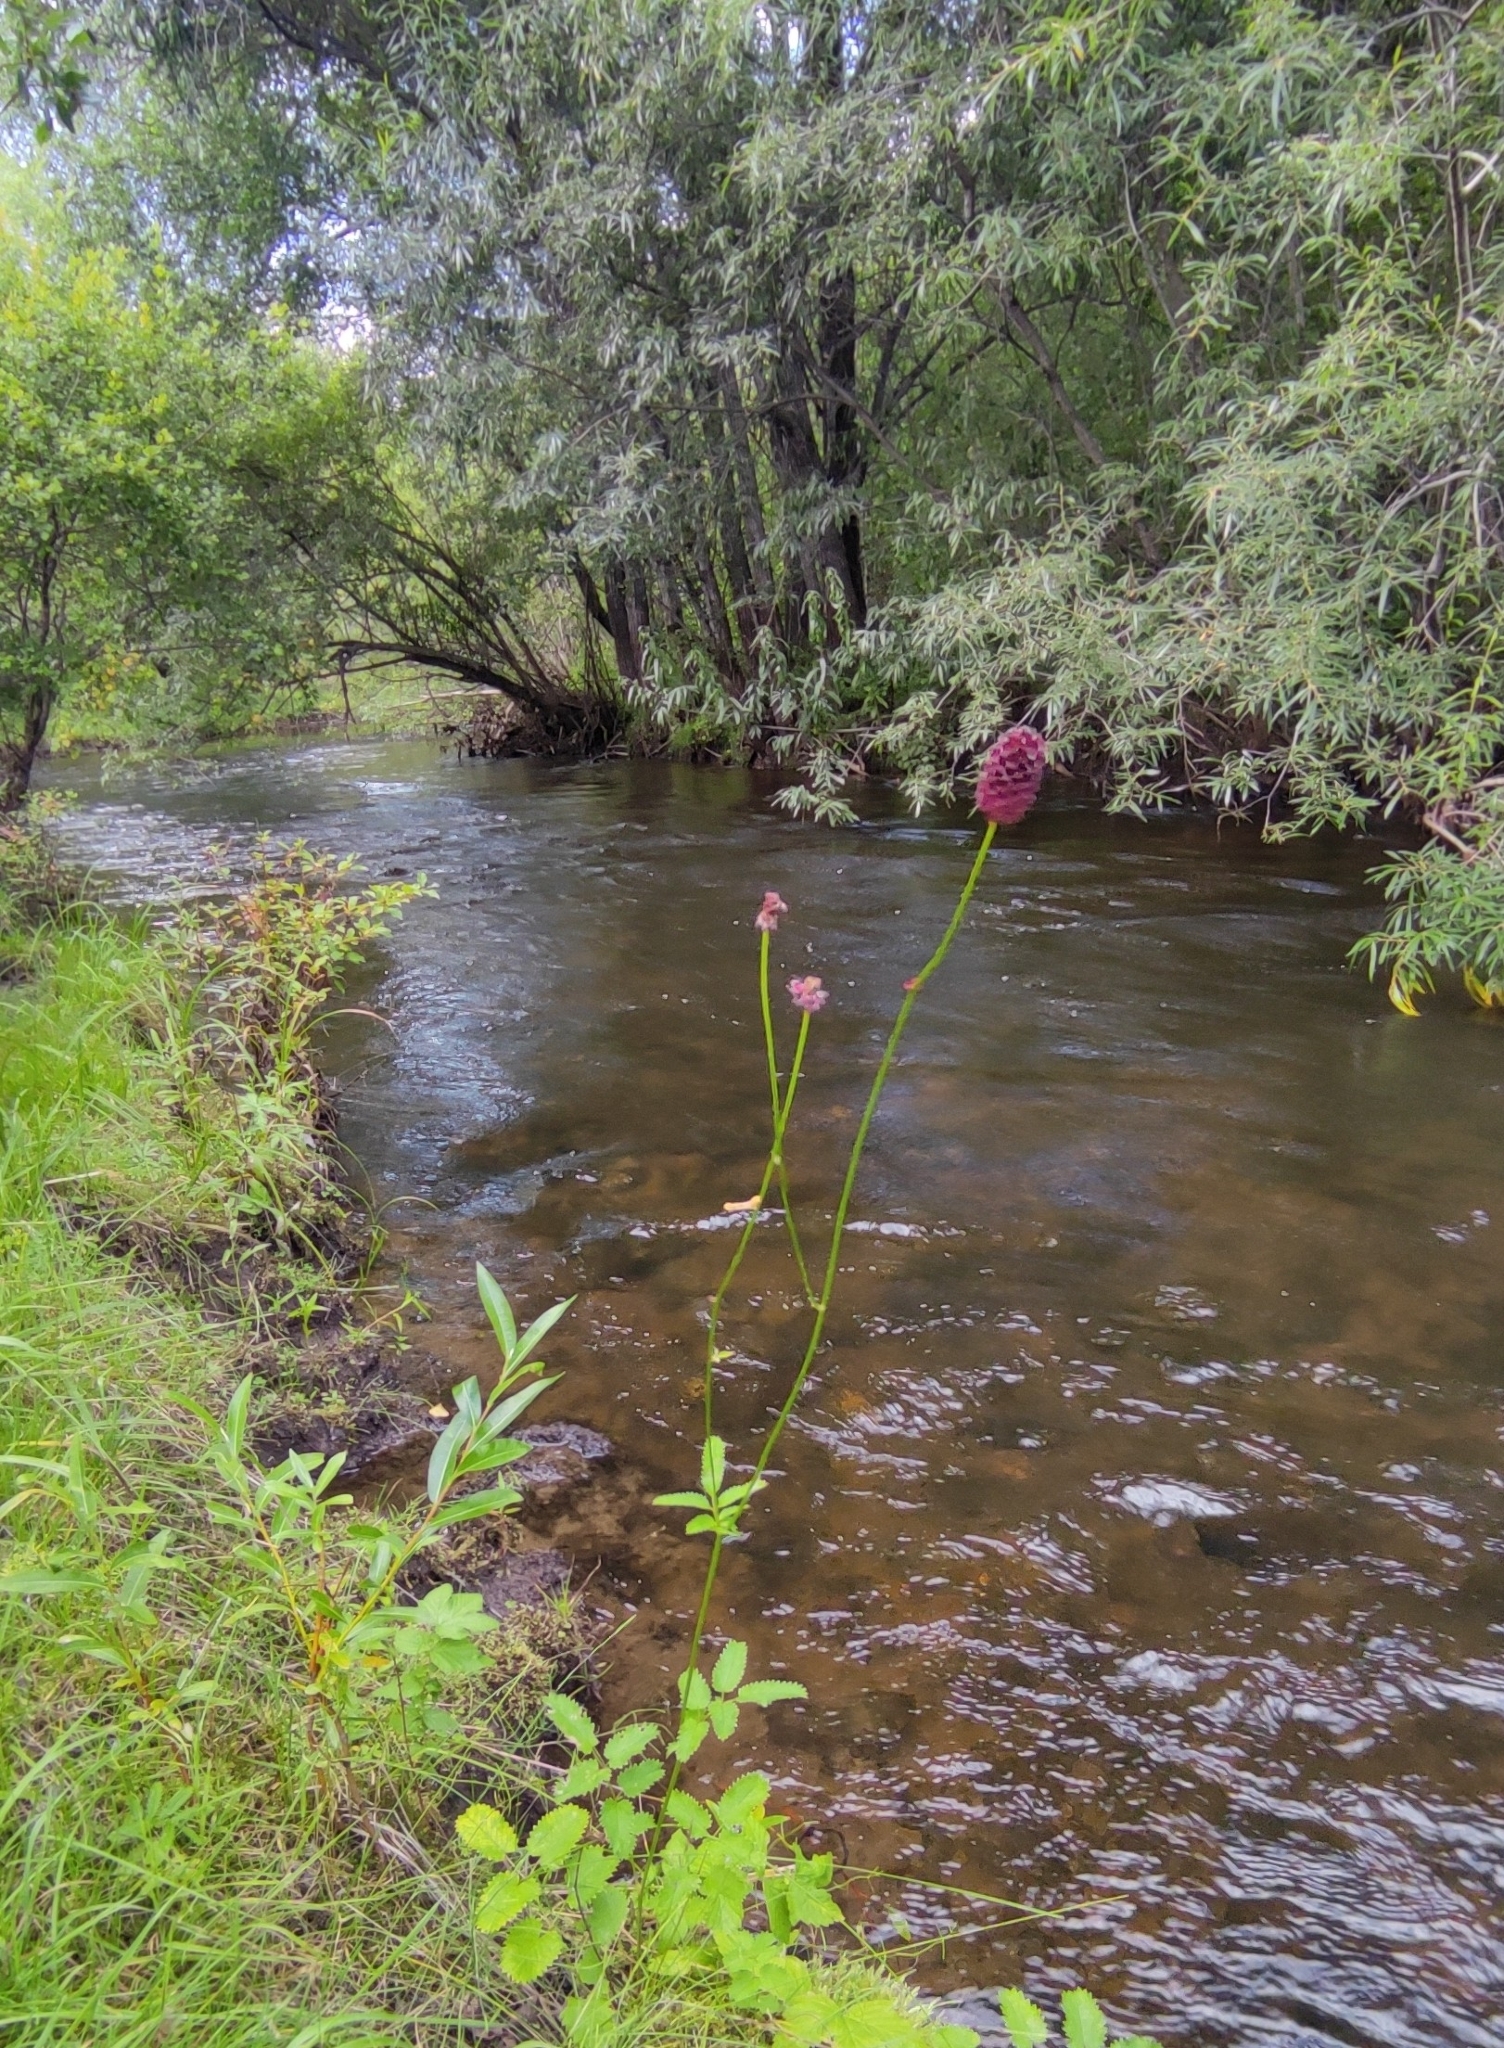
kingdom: Plantae
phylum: Tracheophyta
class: Magnoliopsida
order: Rosales
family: Rosaceae
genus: Sanguisorba
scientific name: Sanguisorba officinalis
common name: Great burnet
